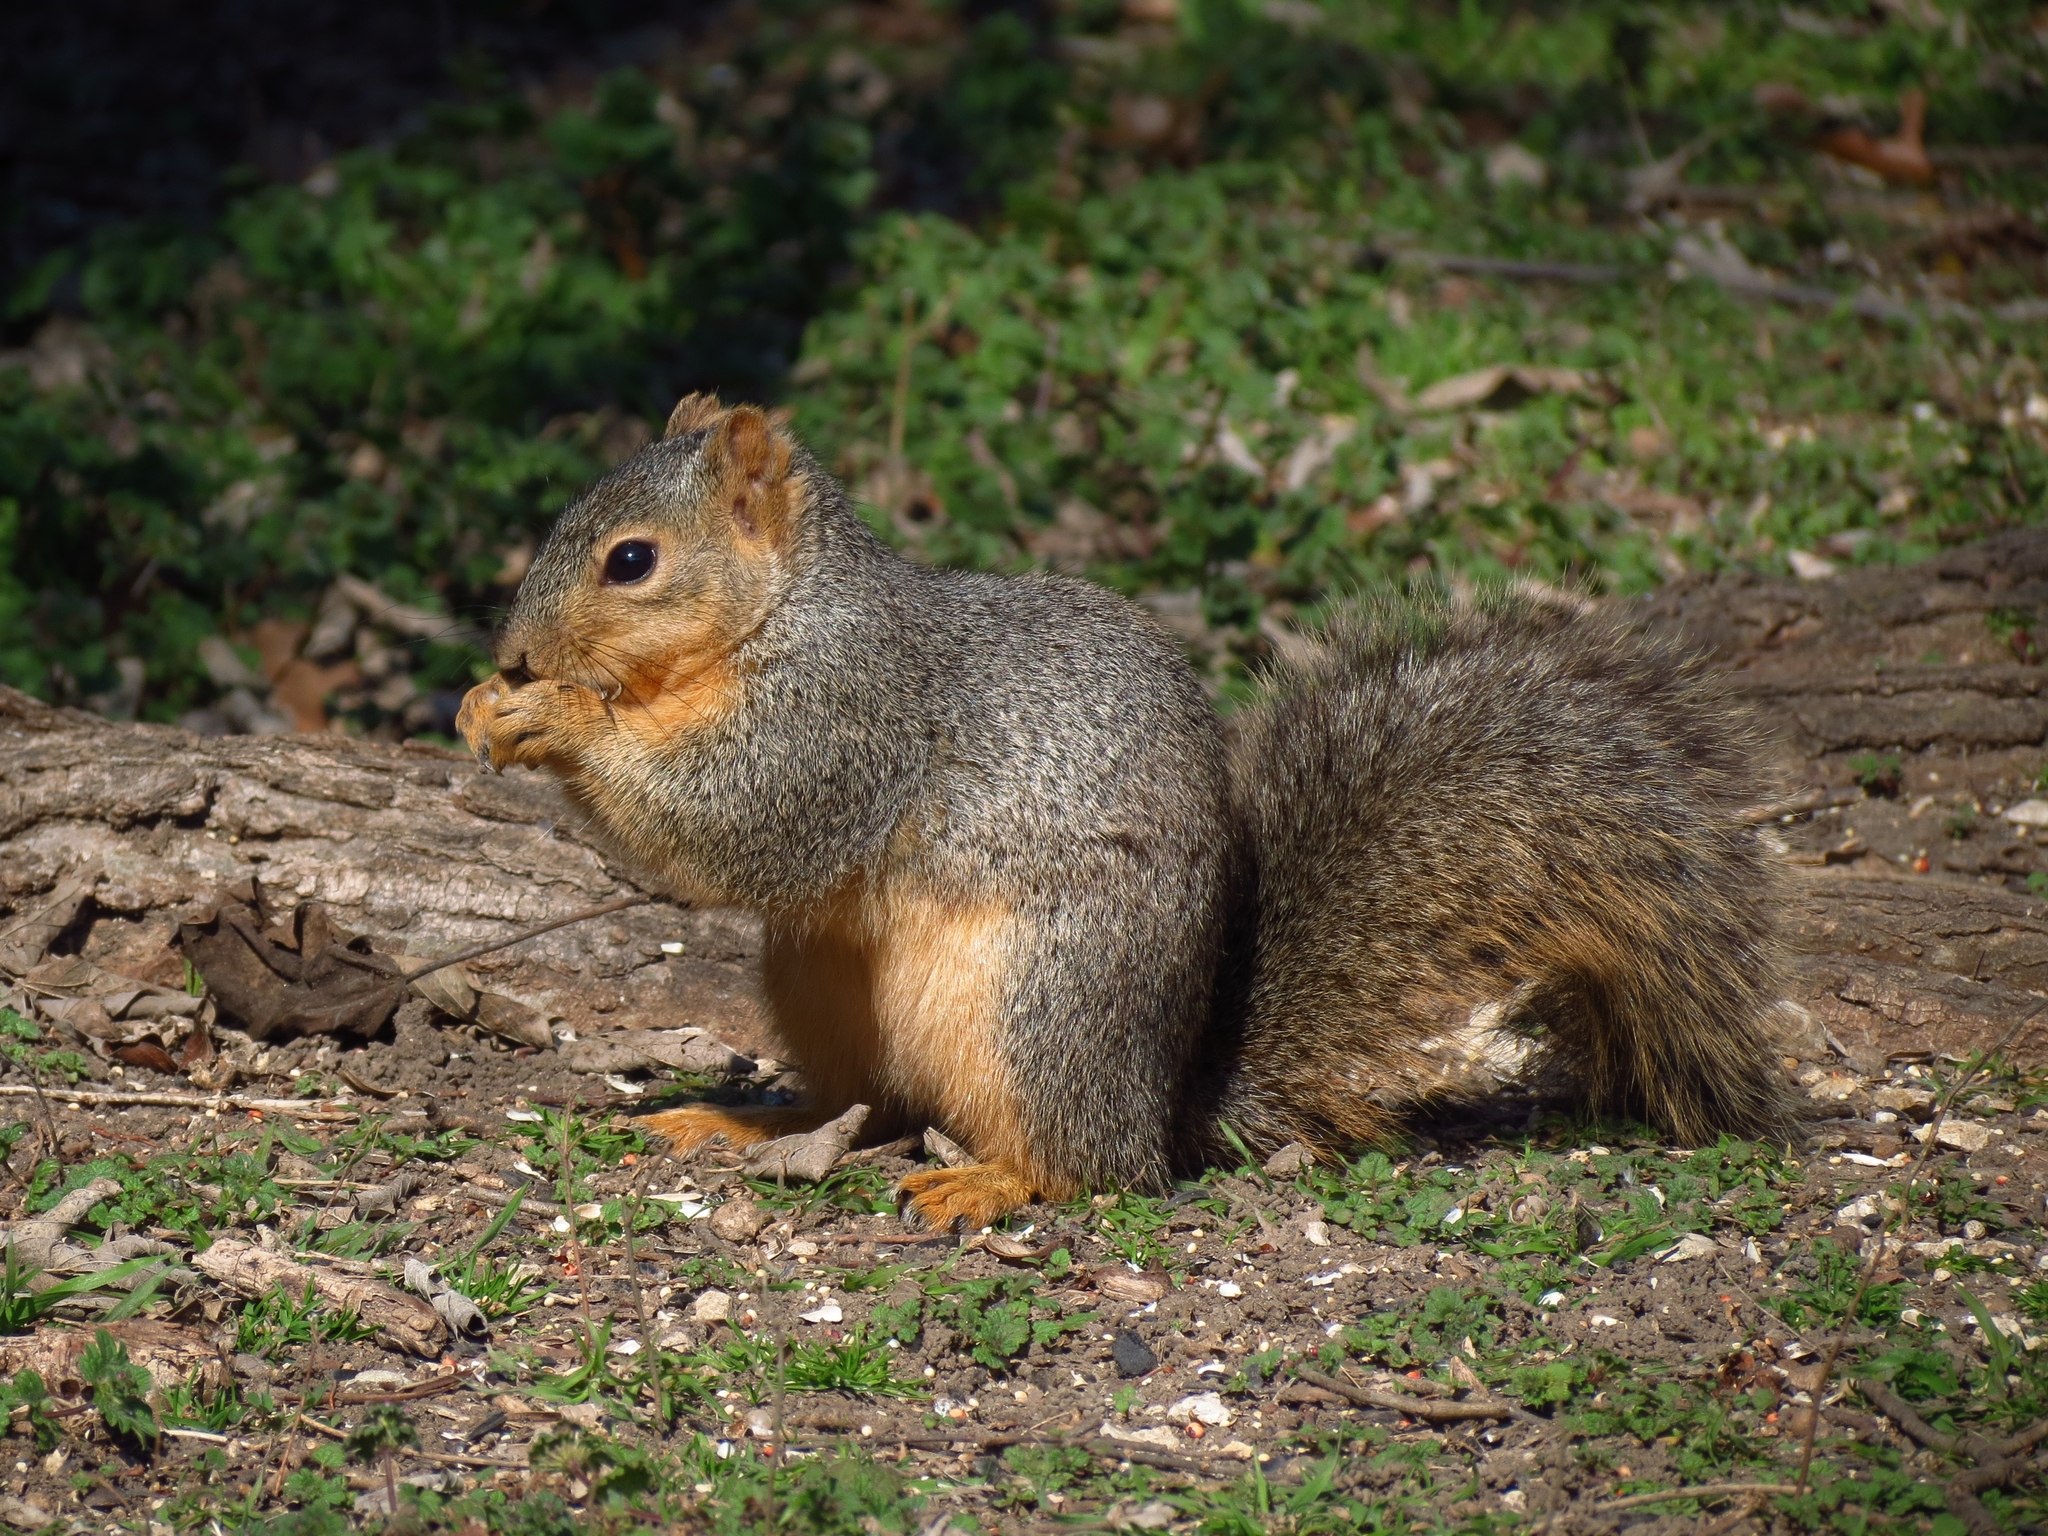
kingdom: Animalia
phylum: Chordata
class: Mammalia
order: Rodentia
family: Sciuridae
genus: Sciurus
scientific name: Sciurus niger
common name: Fox squirrel
